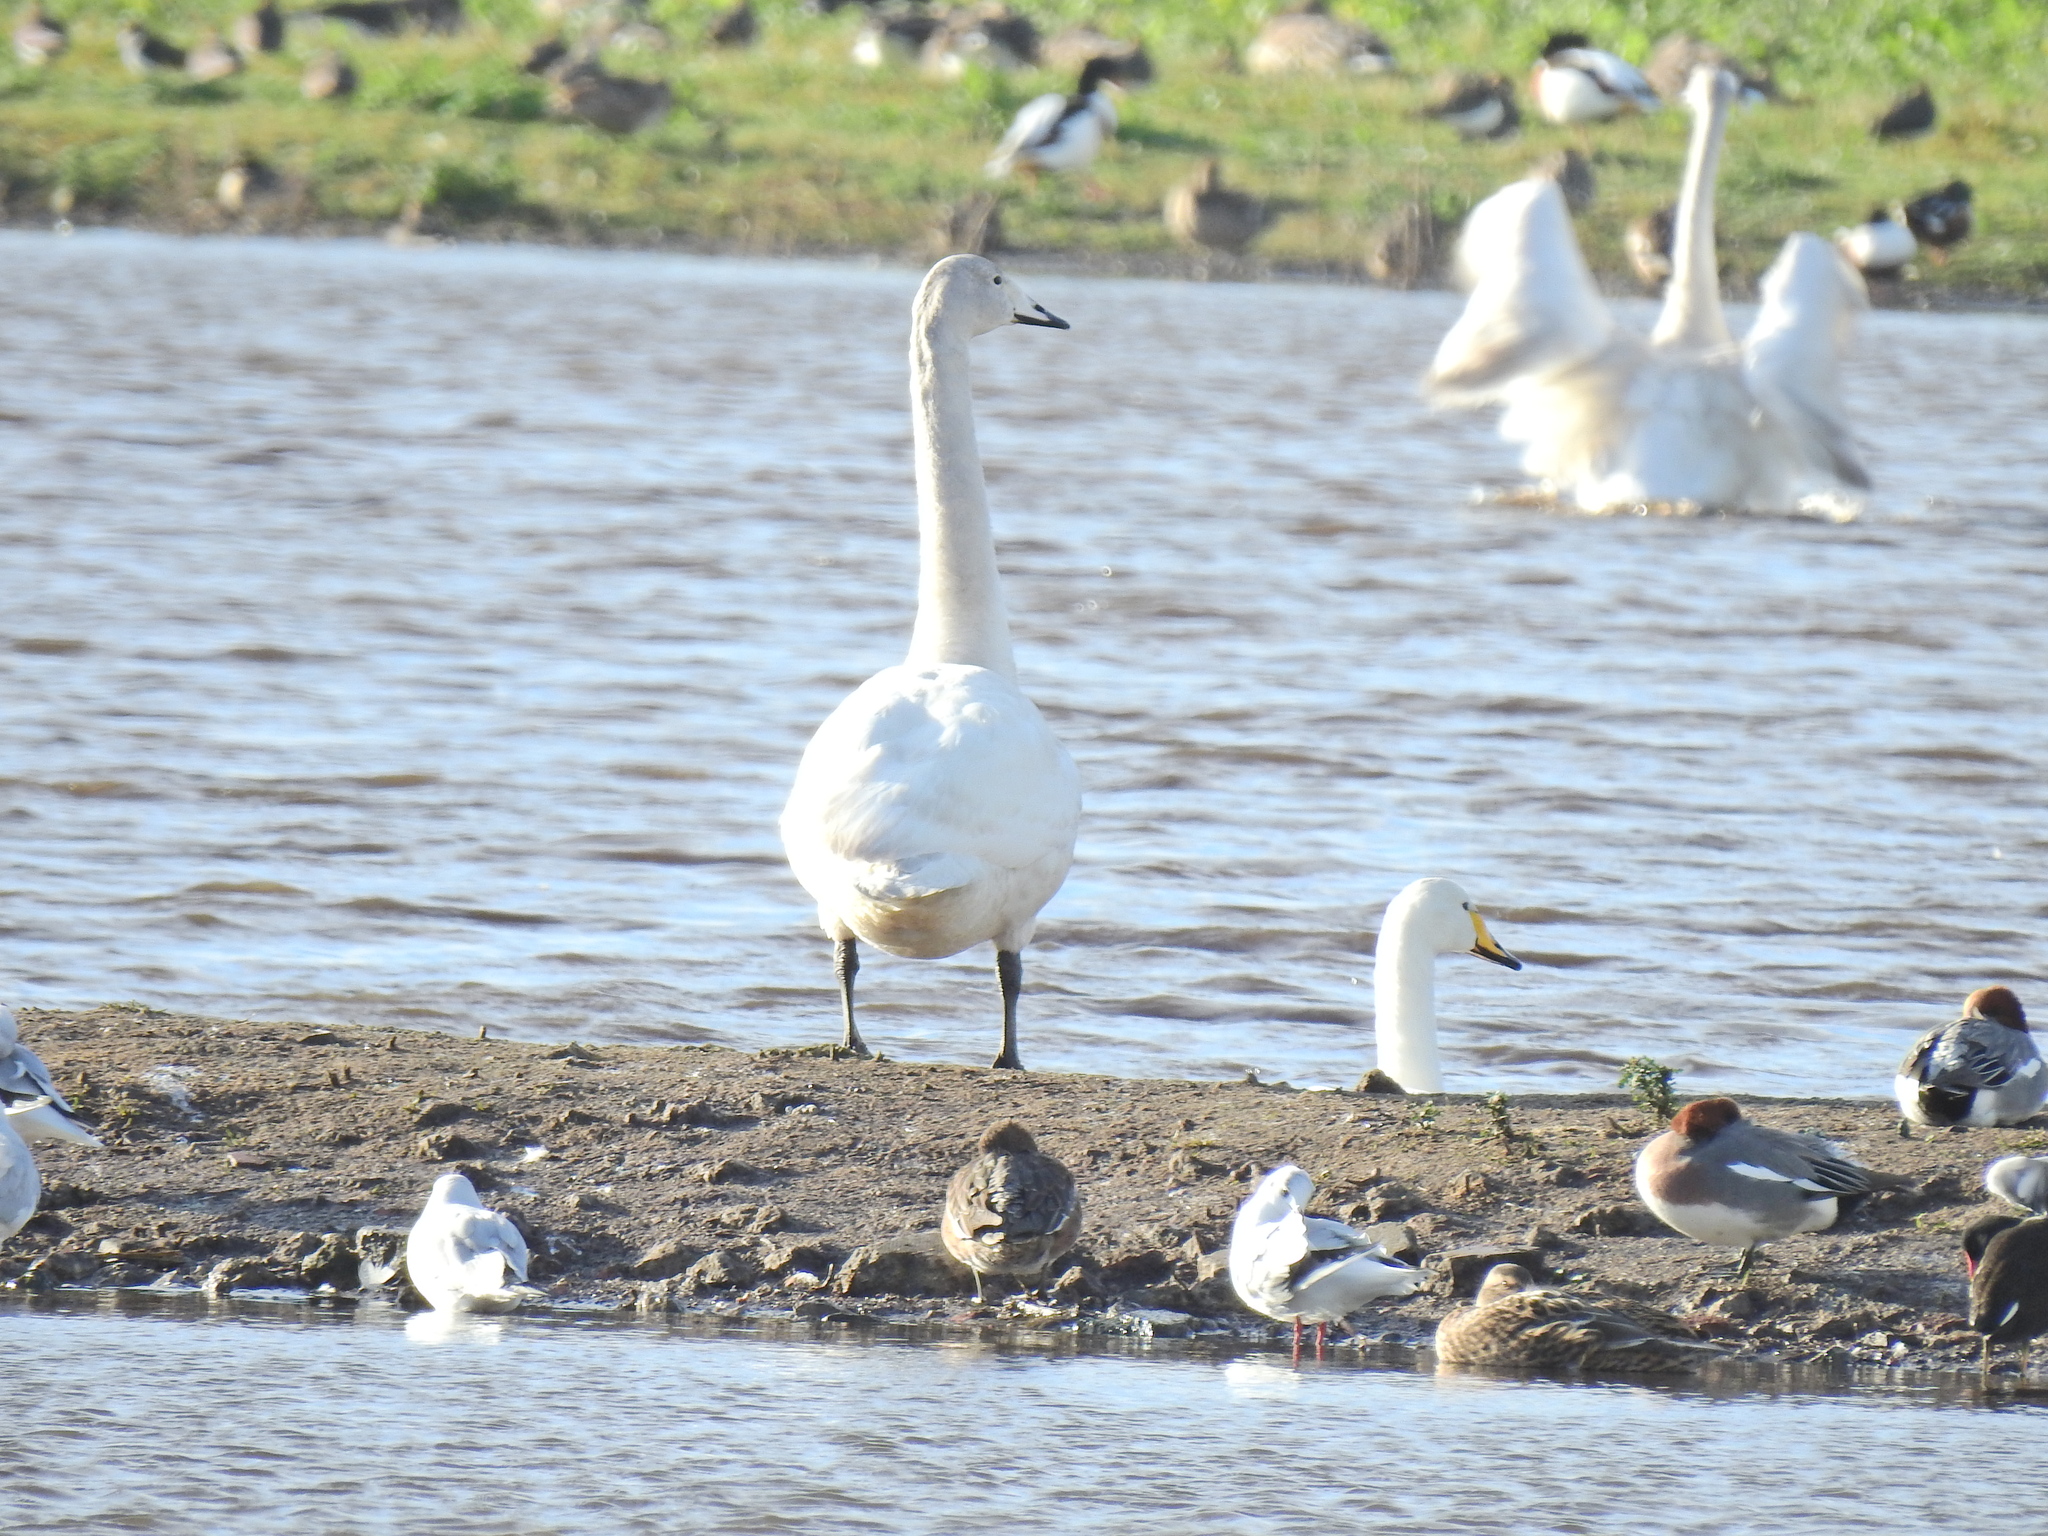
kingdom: Animalia
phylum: Chordata
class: Aves
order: Anseriformes
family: Anatidae
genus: Cygnus
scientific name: Cygnus cygnus
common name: Whooper swan
